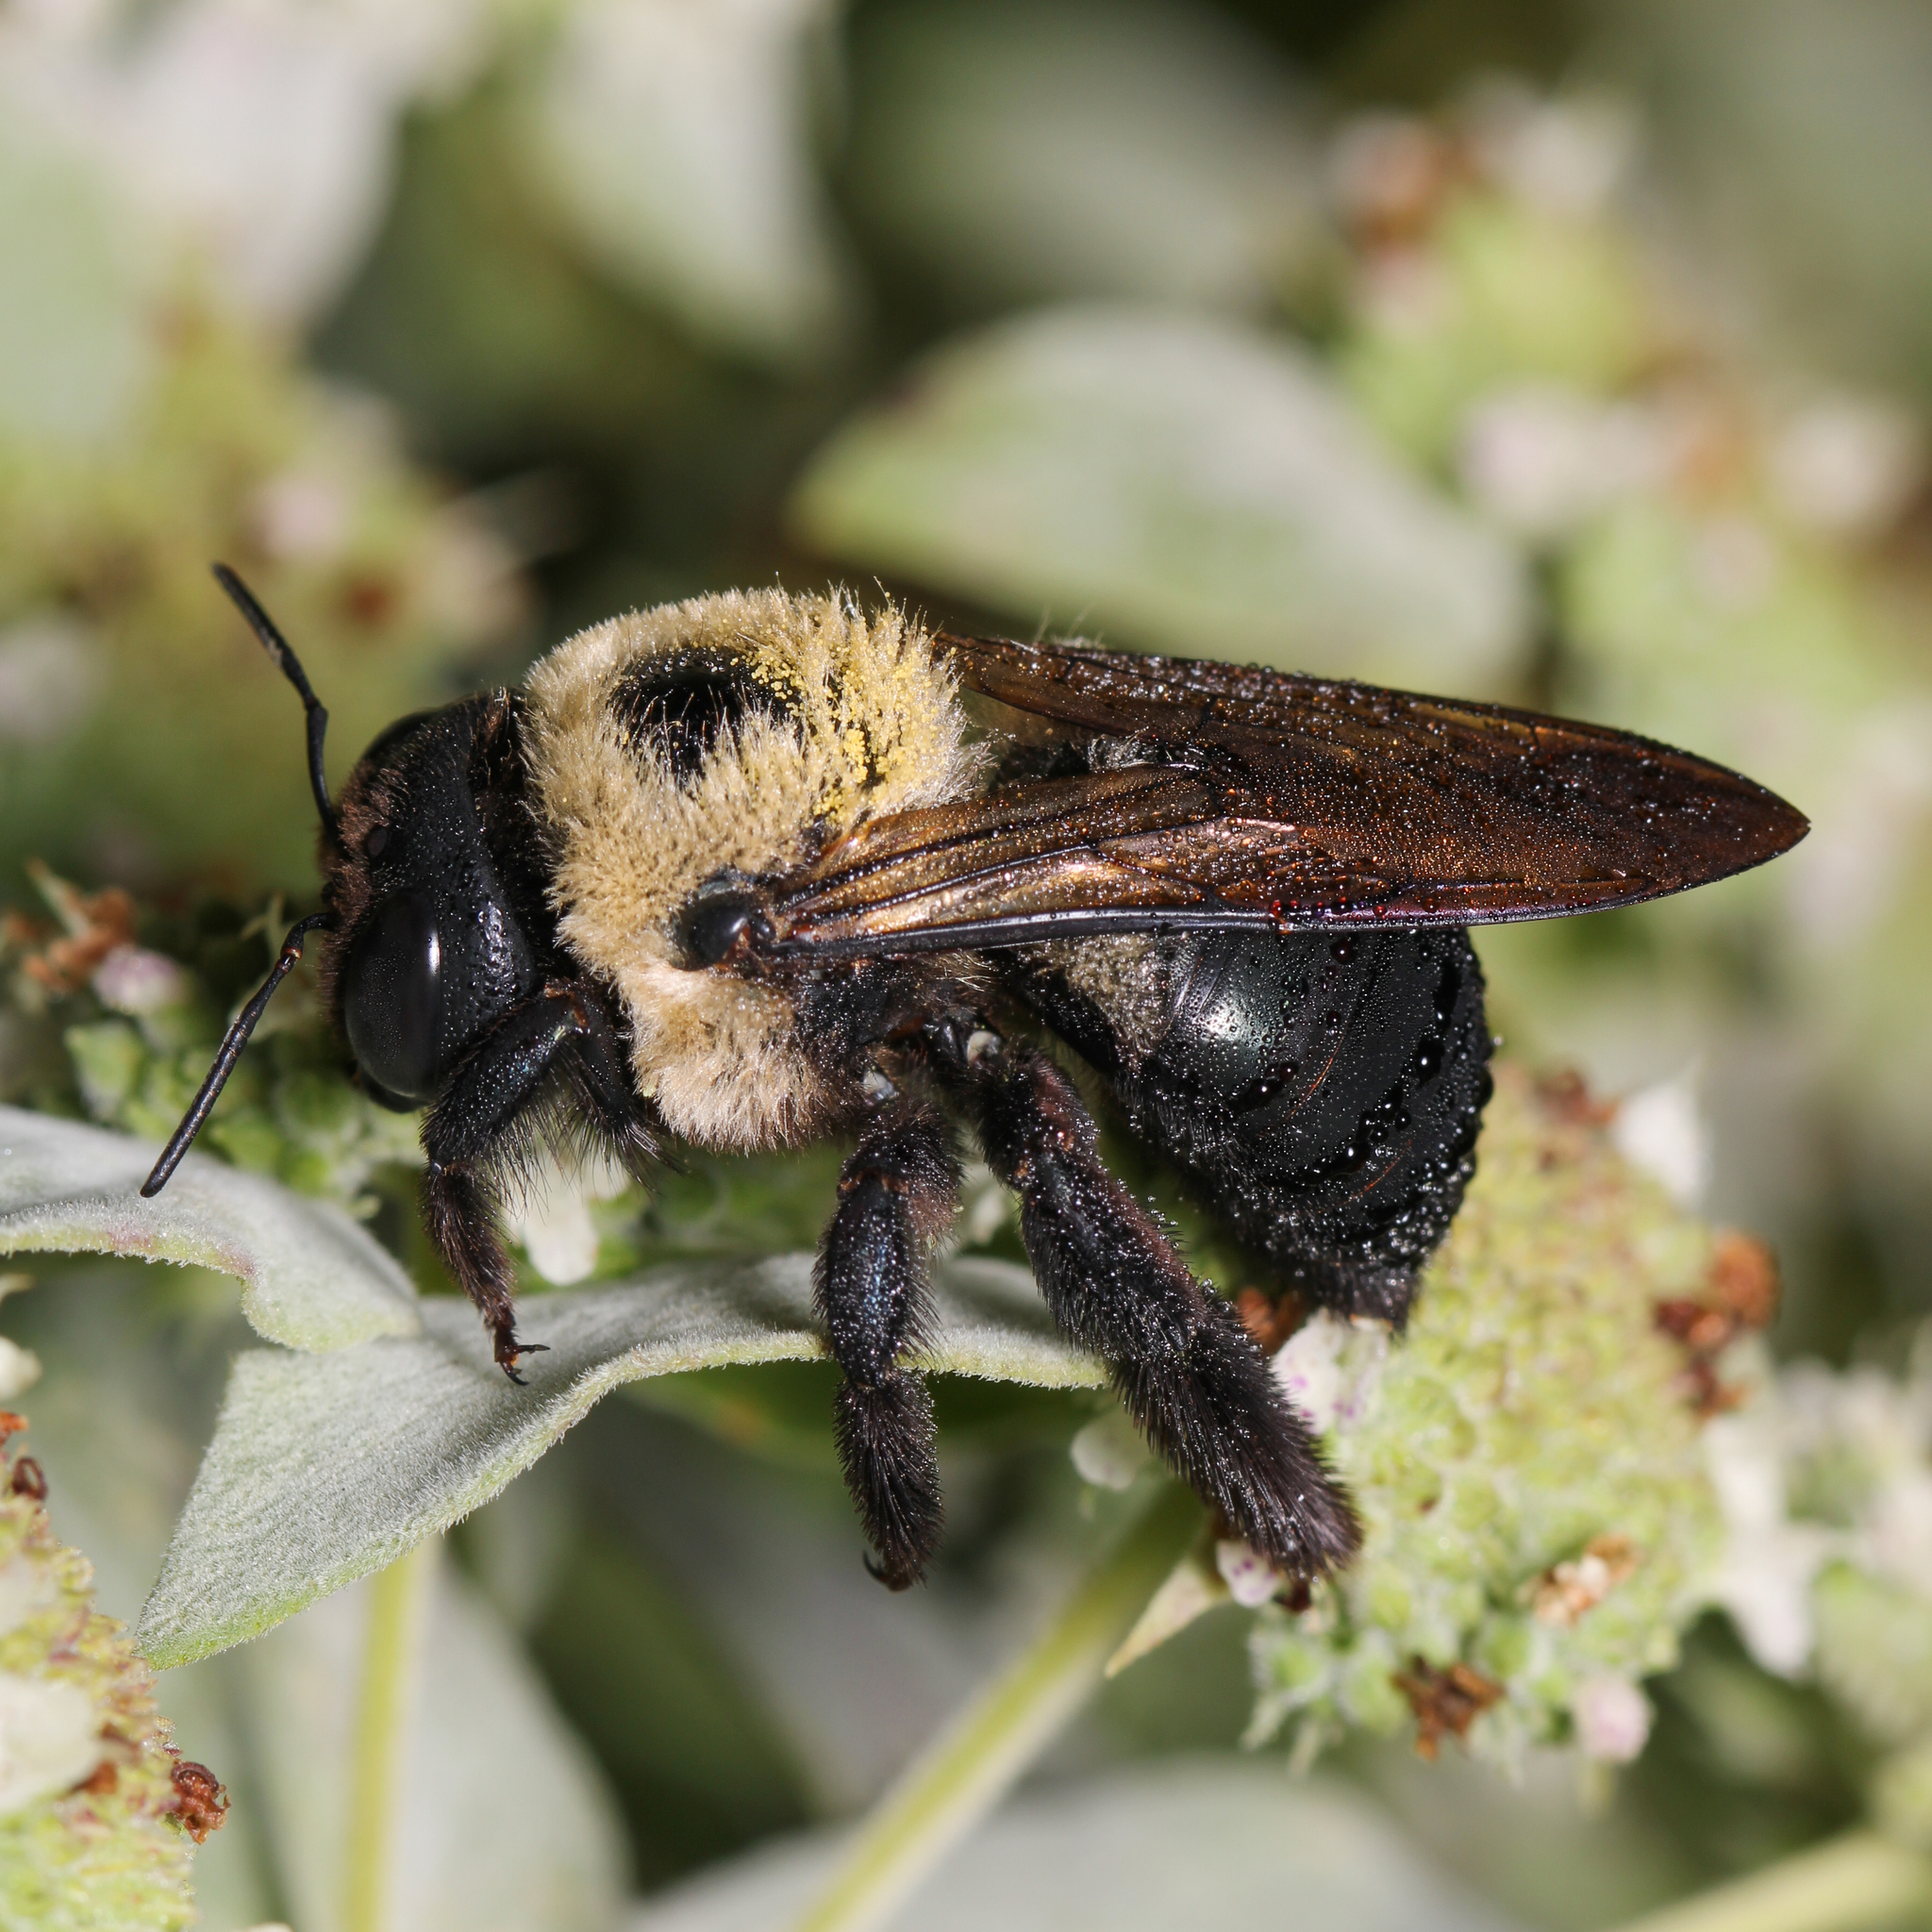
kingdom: Animalia
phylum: Arthropoda
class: Insecta
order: Hymenoptera
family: Apidae
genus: Xylocopa
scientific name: Xylocopa virginica
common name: Carpenter bee
